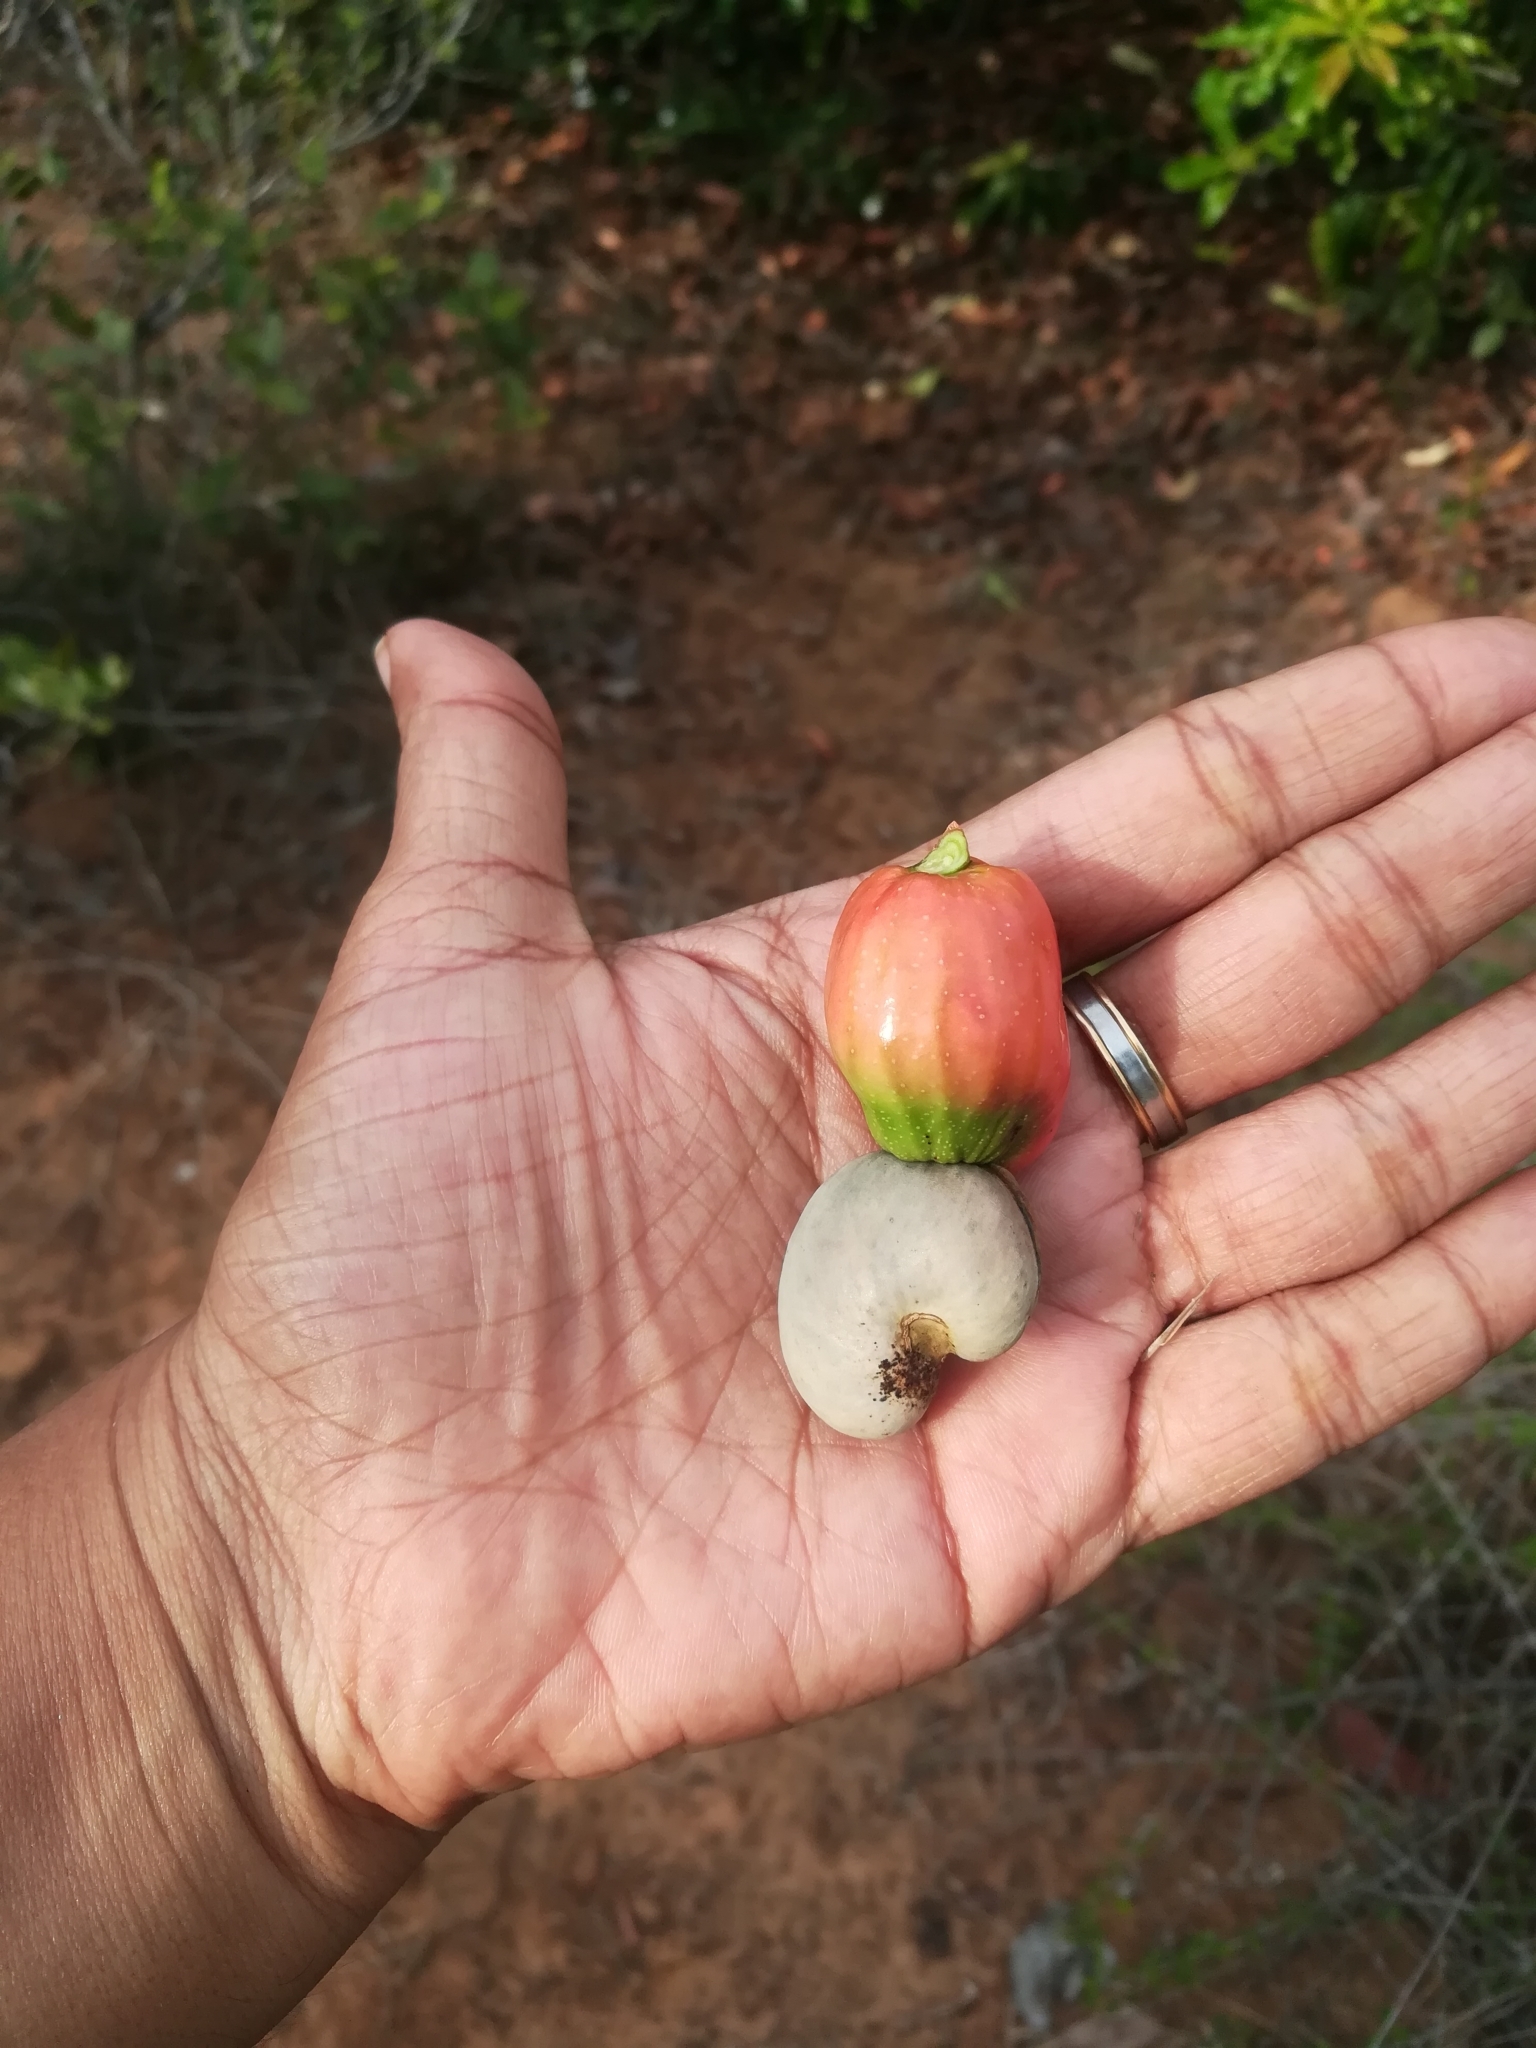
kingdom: Plantae
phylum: Tracheophyta
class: Magnoliopsida
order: Sapindales
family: Anacardiaceae
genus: Anacardium
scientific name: Anacardium occidentale
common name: Cashew
